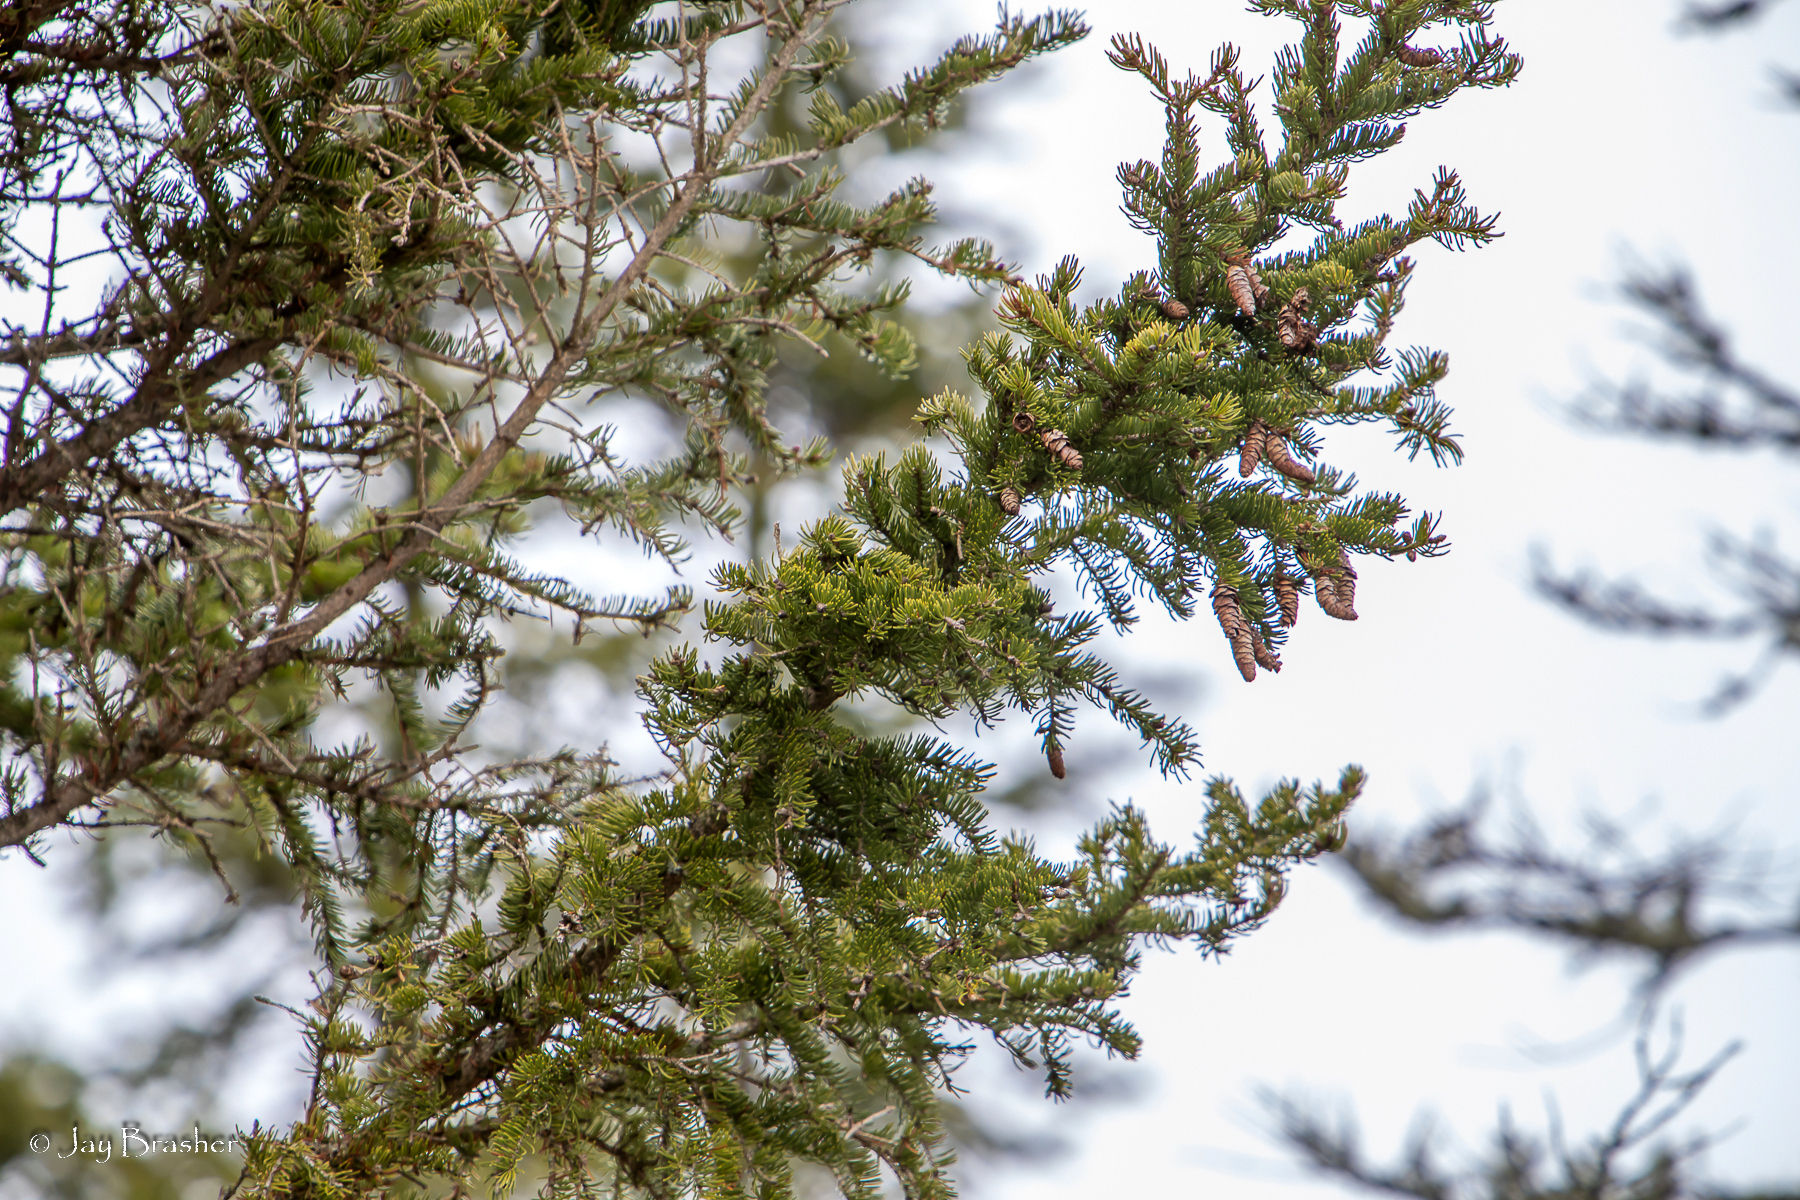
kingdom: Plantae
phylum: Tracheophyta
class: Pinopsida
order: Pinales
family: Pinaceae
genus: Picea
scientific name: Picea glauca
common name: White spruce
